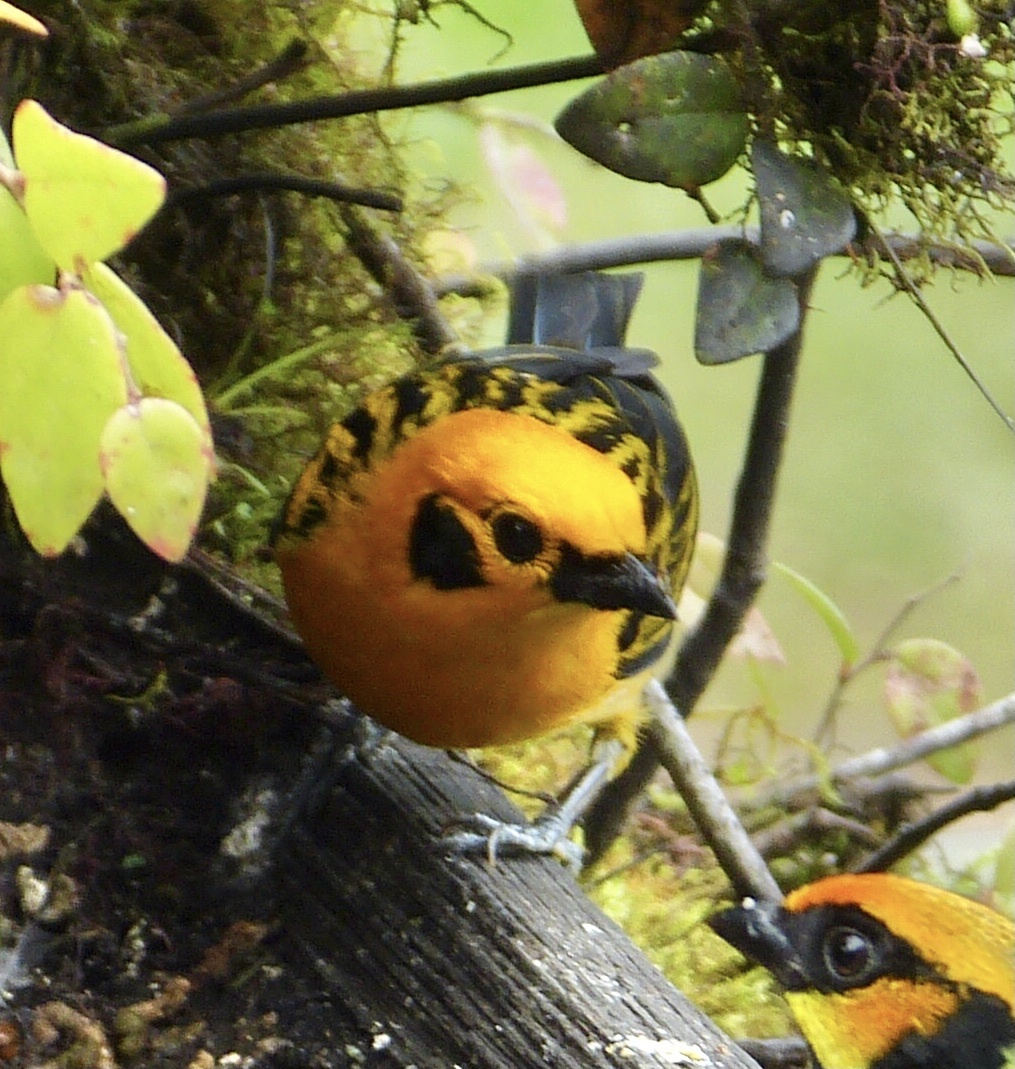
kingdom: Animalia
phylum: Chordata
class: Aves
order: Passeriformes
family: Thraupidae
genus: Tangara
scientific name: Tangara arthus
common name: Golden tanager
